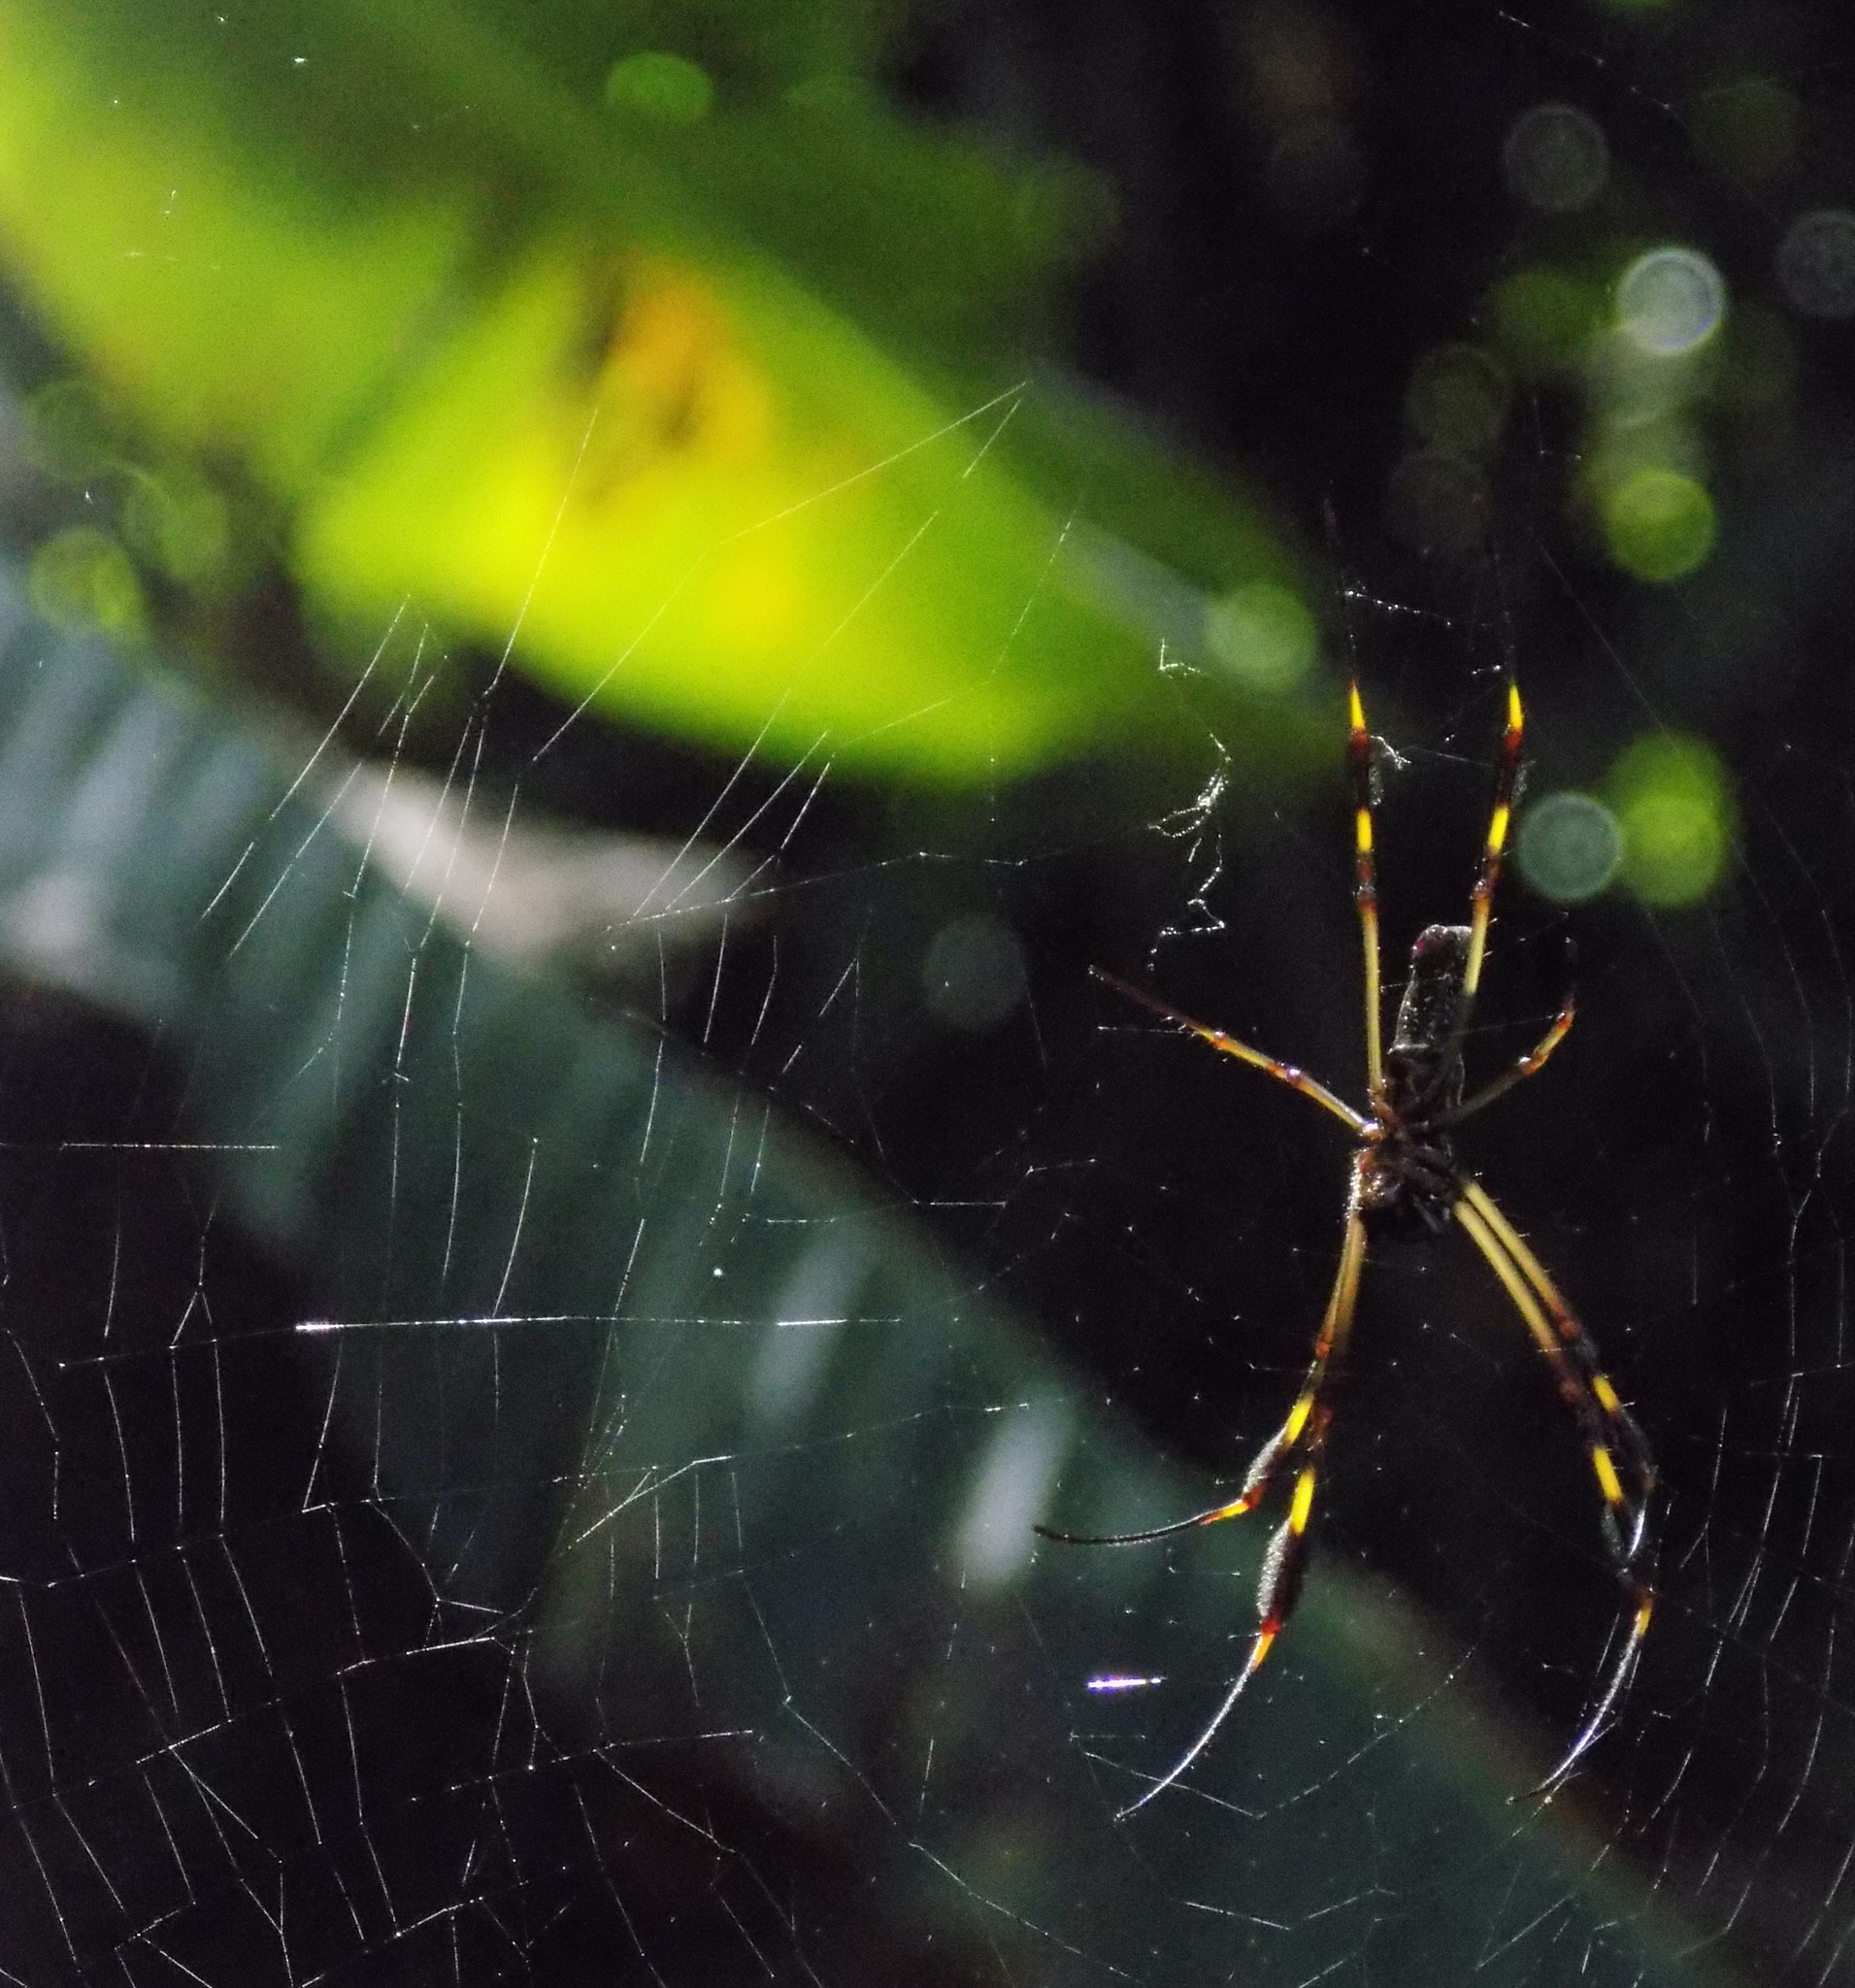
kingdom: Animalia
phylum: Arthropoda
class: Arachnida
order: Araneae
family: Araneidae
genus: Trichonephila
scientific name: Trichonephila clavipes
